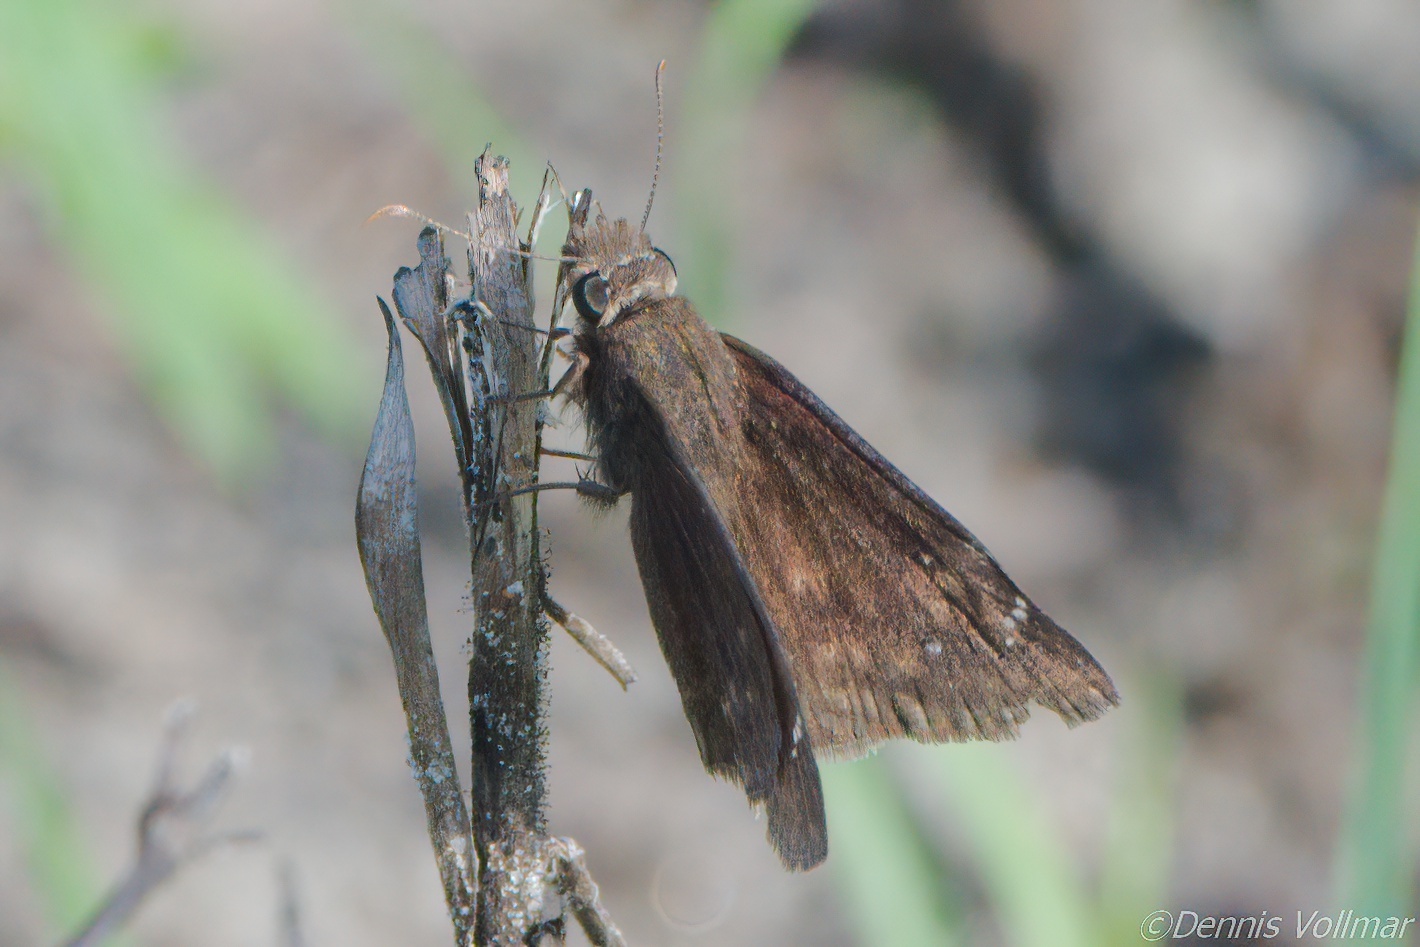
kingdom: Animalia
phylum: Arthropoda
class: Insecta
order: Lepidoptera
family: Hesperiidae
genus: Erynnis
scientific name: Erynnis zarucco
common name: Zarucco duskywing
